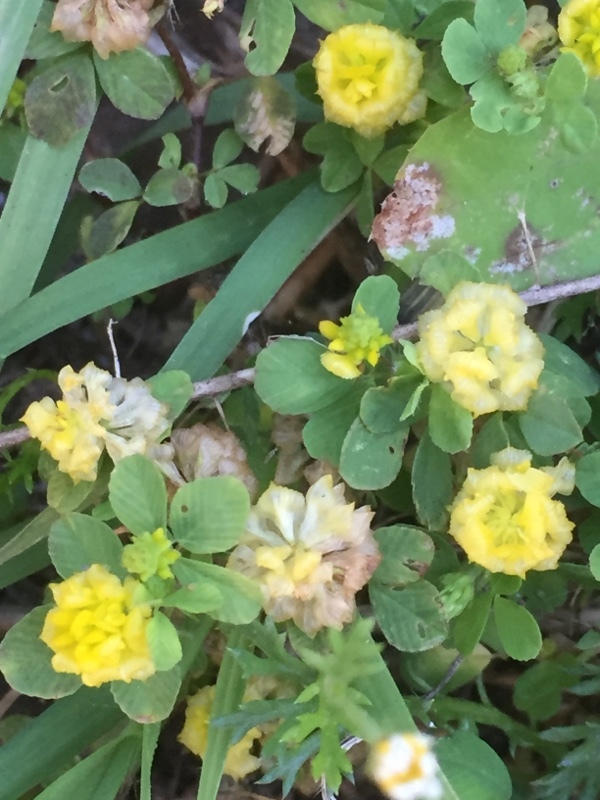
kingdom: Plantae
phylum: Tracheophyta
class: Magnoliopsida
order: Fabales
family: Fabaceae
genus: Trifolium
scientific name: Trifolium campestre
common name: Field clover
